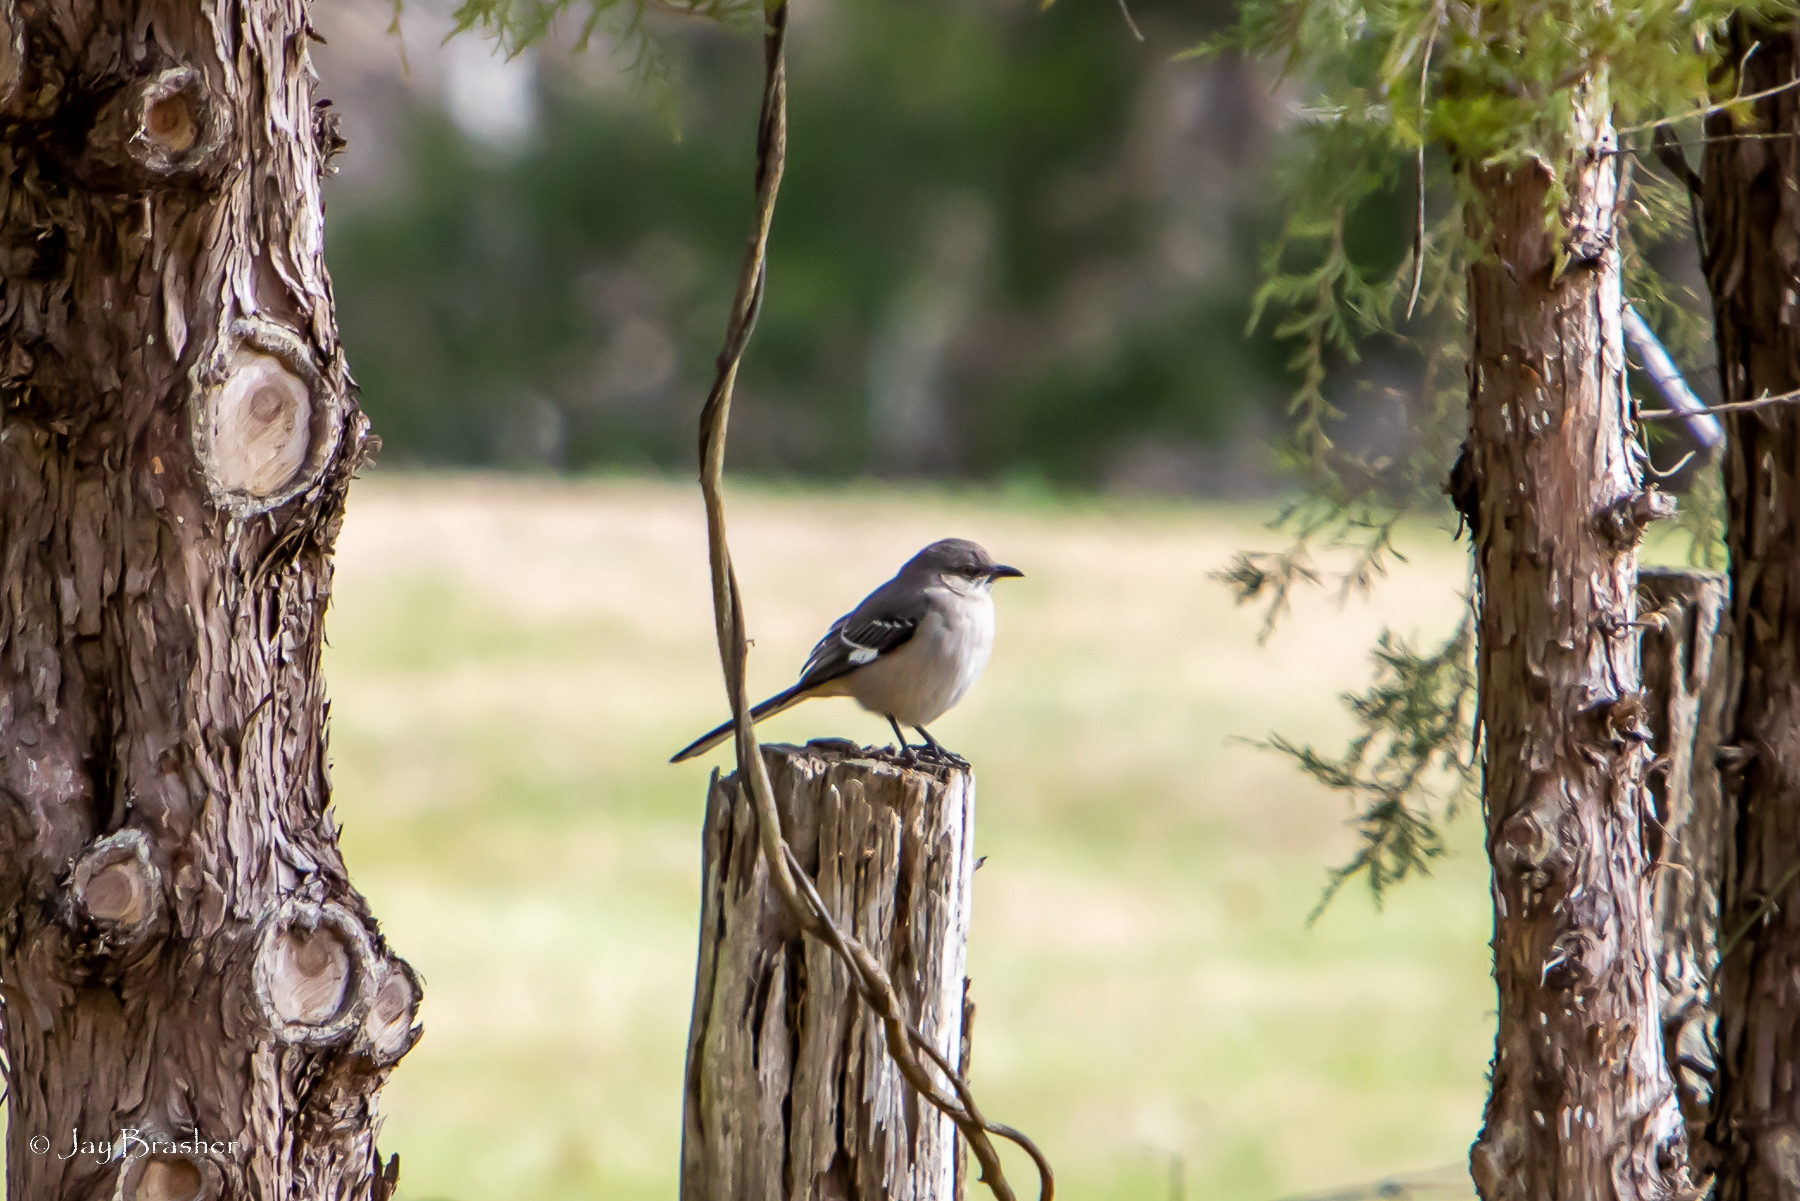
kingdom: Animalia
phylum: Chordata
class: Aves
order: Passeriformes
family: Mimidae
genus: Mimus
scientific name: Mimus polyglottos
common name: Northern mockingbird
